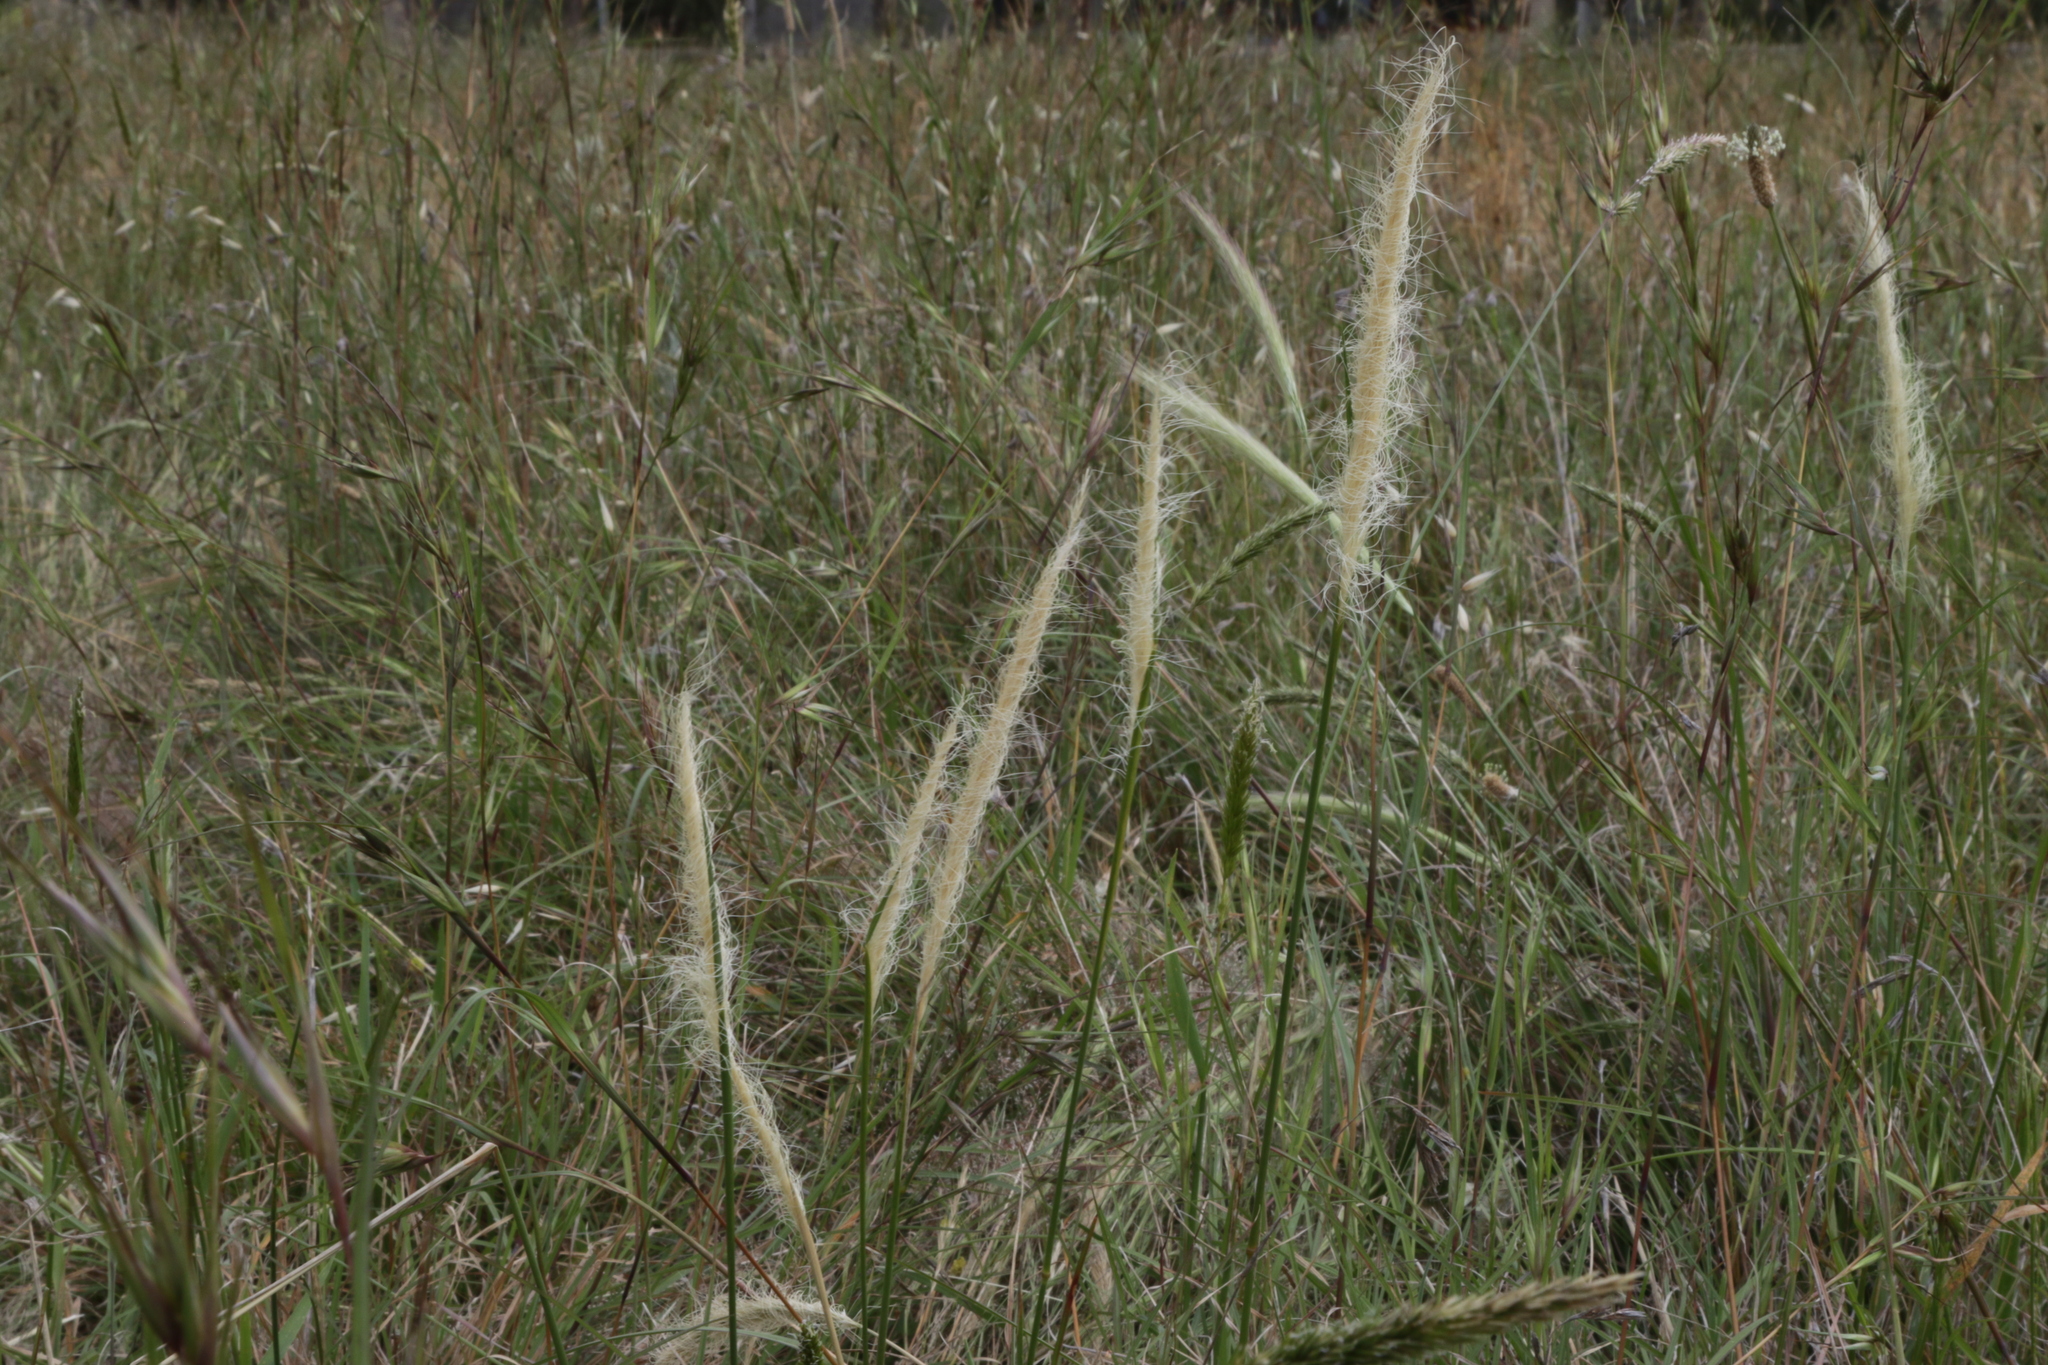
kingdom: Plantae
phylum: Tracheophyta
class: Liliopsida
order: Poales
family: Poaceae
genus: Dichelachne
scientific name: Dichelachne crinita
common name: Clovenfoot plumegrass
